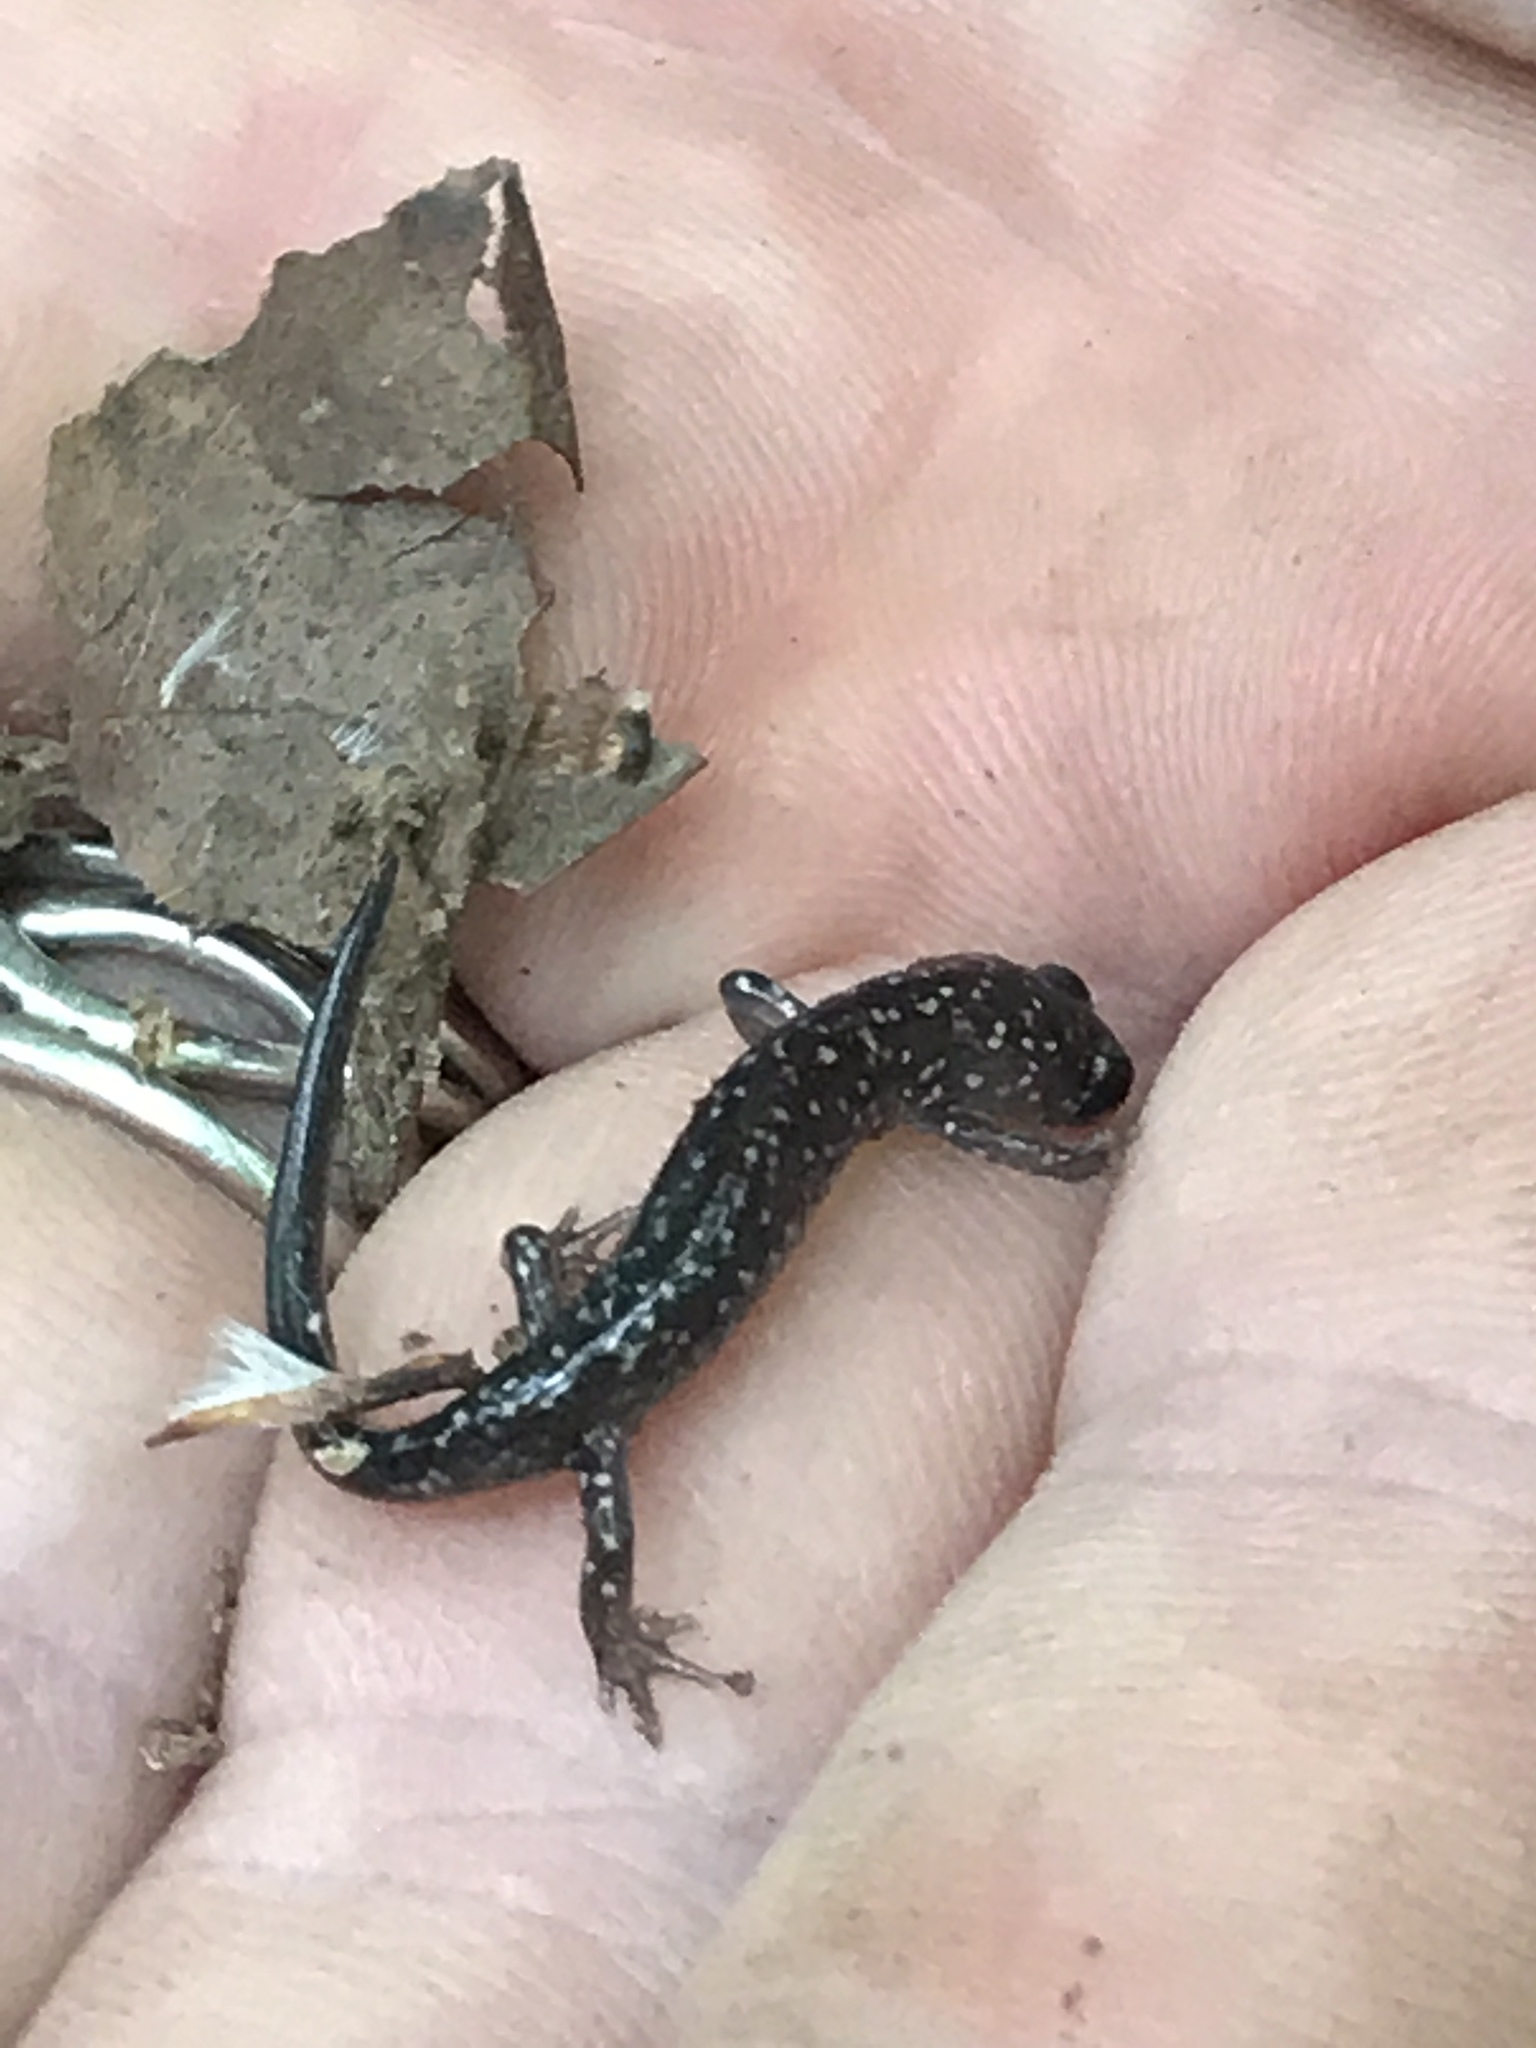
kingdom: Animalia
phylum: Chordata
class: Amphibia
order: Caudata
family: Plethodontidae
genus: Plethodon
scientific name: Plethodon glutinosus
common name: Northern slimy salamander
